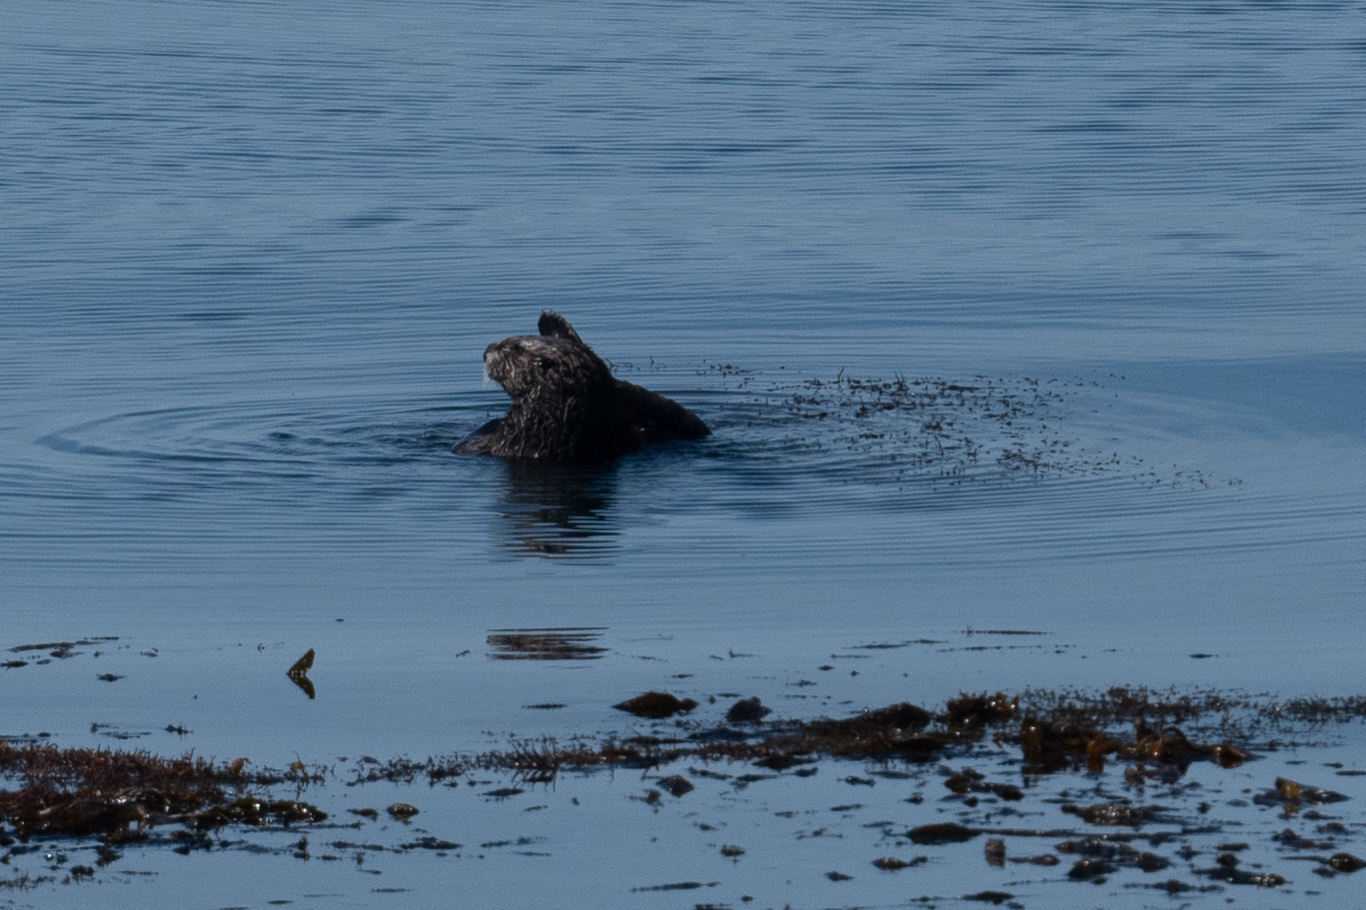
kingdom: Animalia
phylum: Chordata
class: Mammalia
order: Carnivora
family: Mustelidae
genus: Enhydra
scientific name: Enhydra lutris
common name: Sea otter
